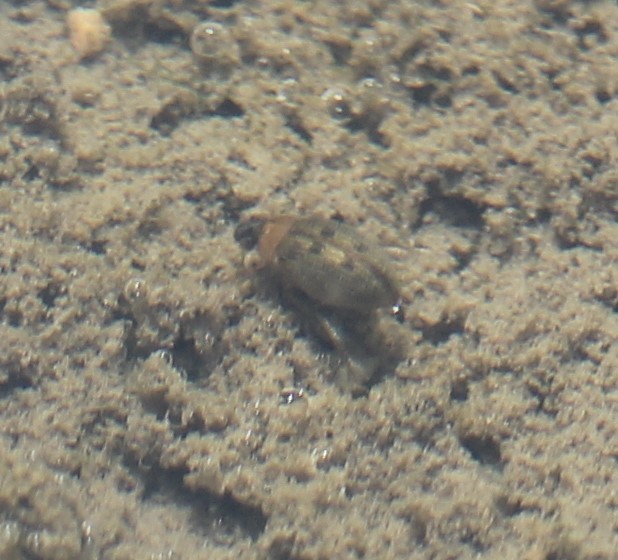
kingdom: Animalia
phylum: Arthropoda
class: Insecta
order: Coleoptera
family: Hydrophilidae
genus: Berosus
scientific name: Berosus
